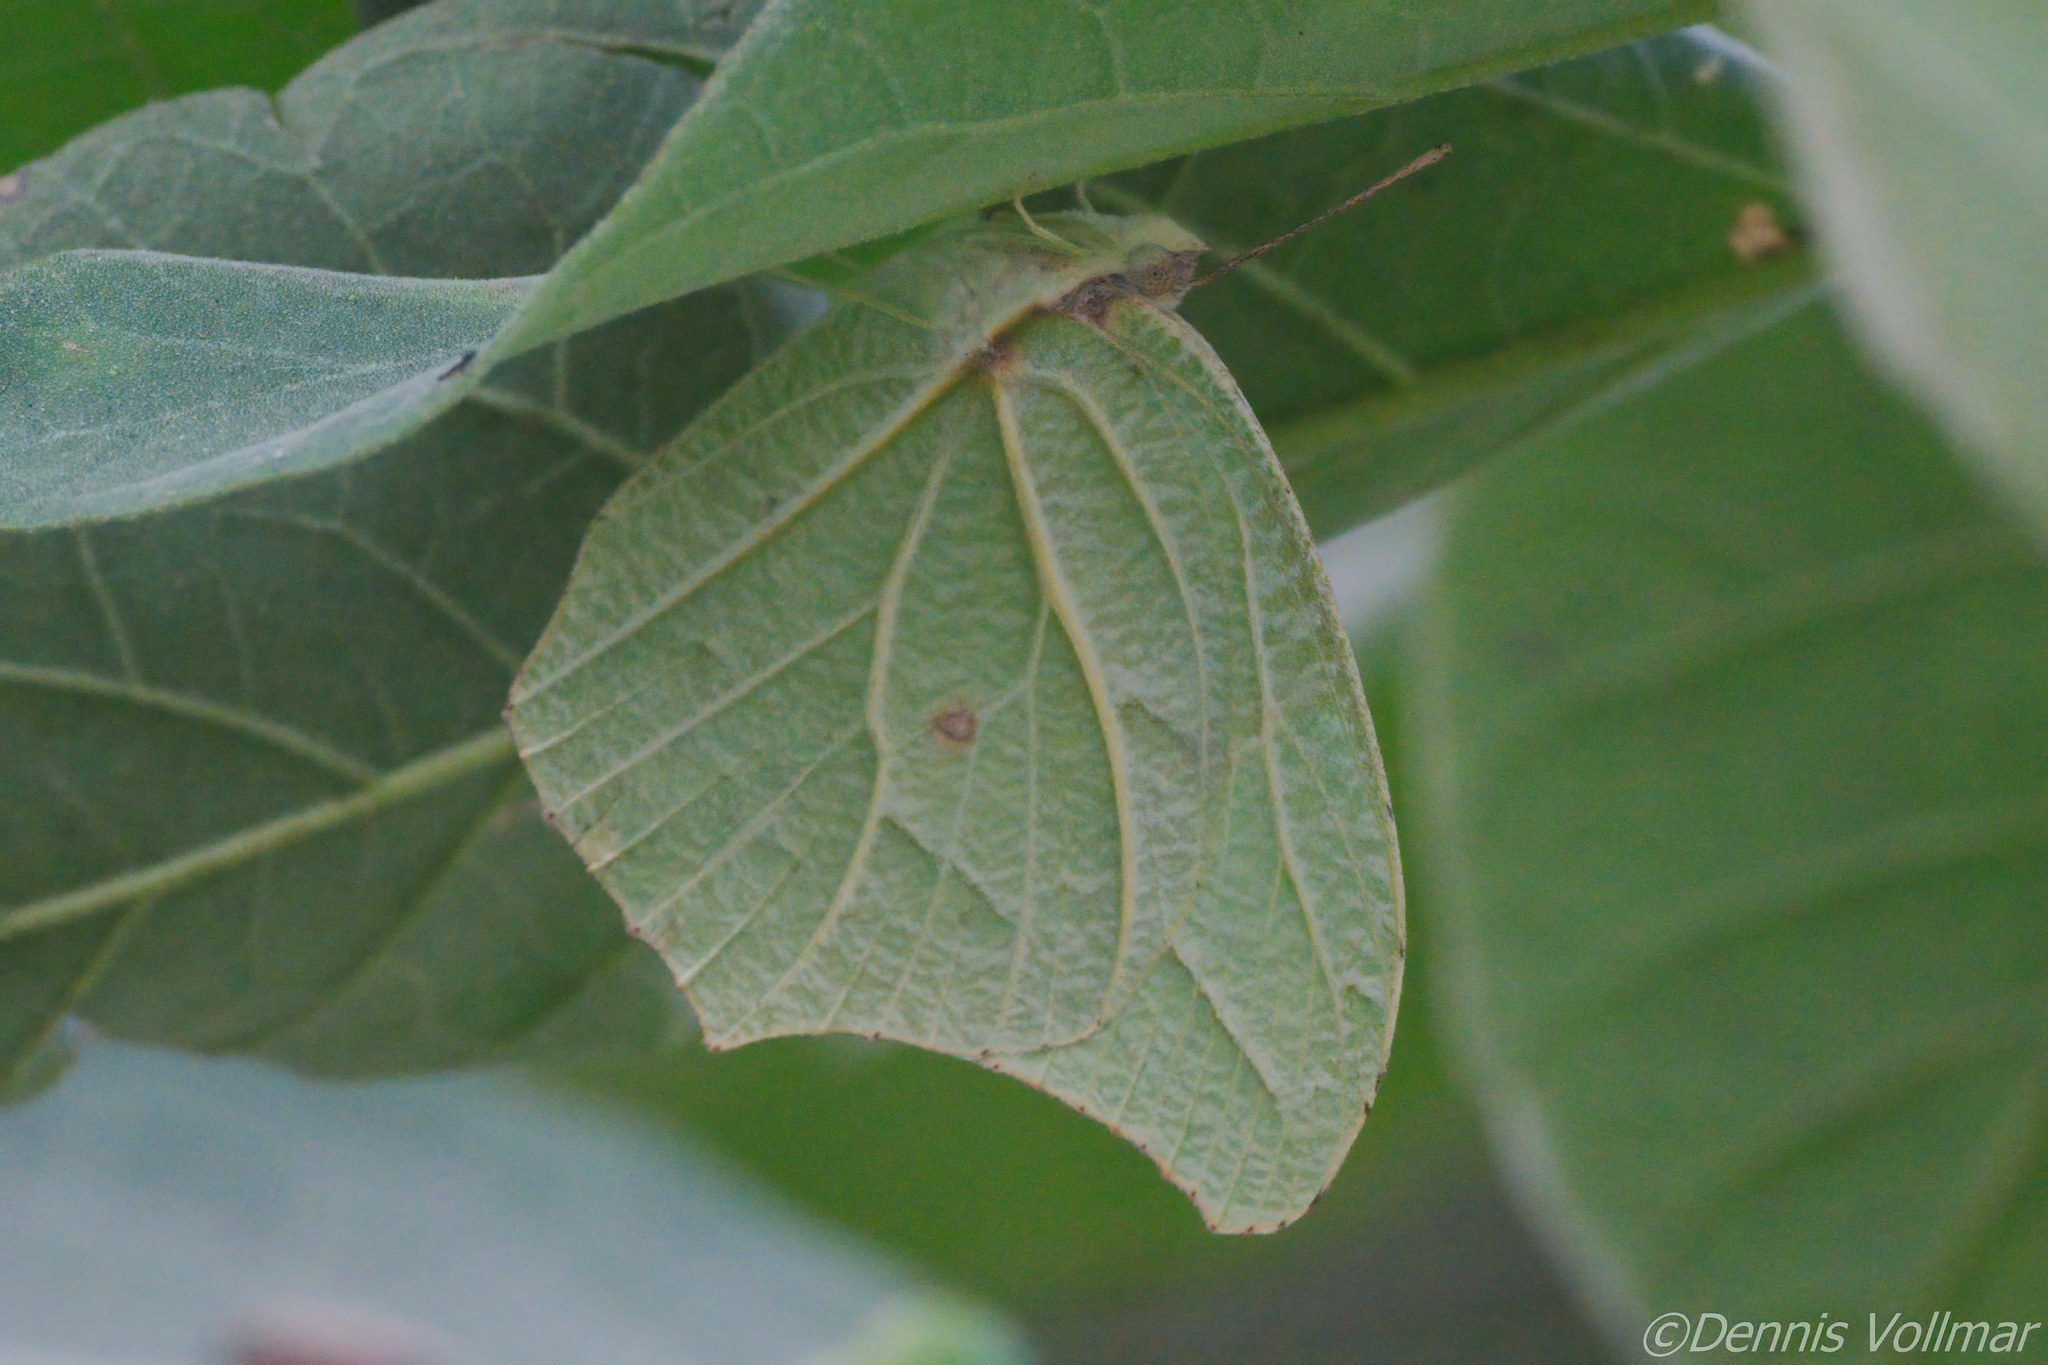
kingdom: Animalia
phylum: Arthropoda
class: Insecta
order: Lepidoptera
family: Pieridae
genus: Anteos
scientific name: Anteos clorinde
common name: White angled sulphur
